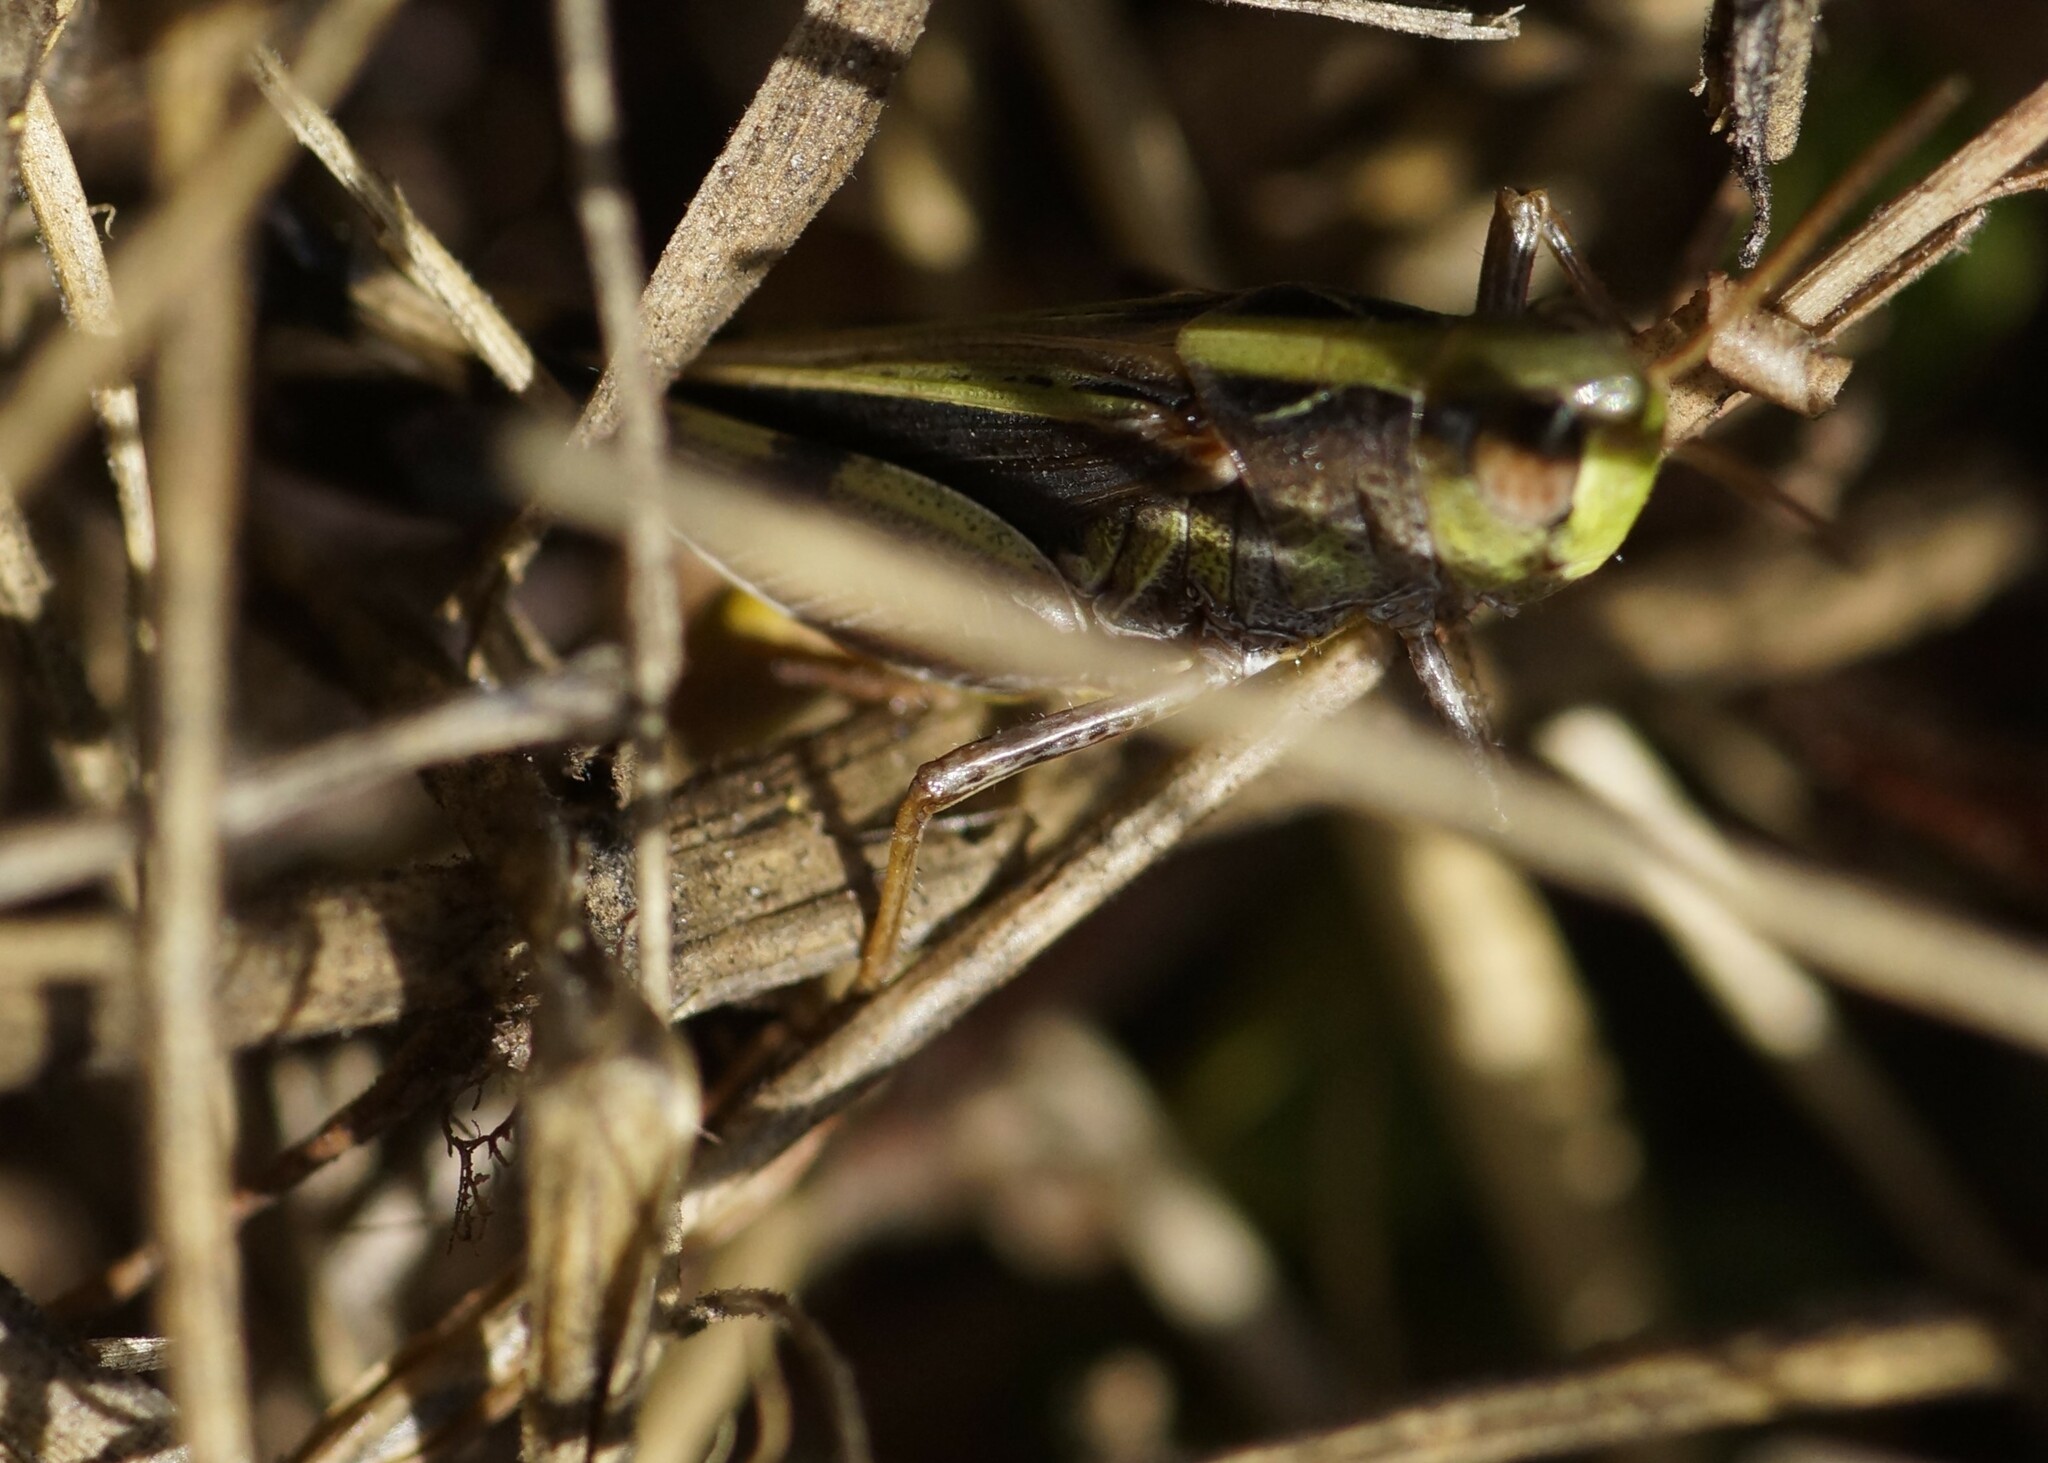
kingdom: Animalia
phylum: Arthropoda
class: Insecta
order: Orthoptera
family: Acrididae
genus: Aiolopus
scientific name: Aiolopus thalassinus
